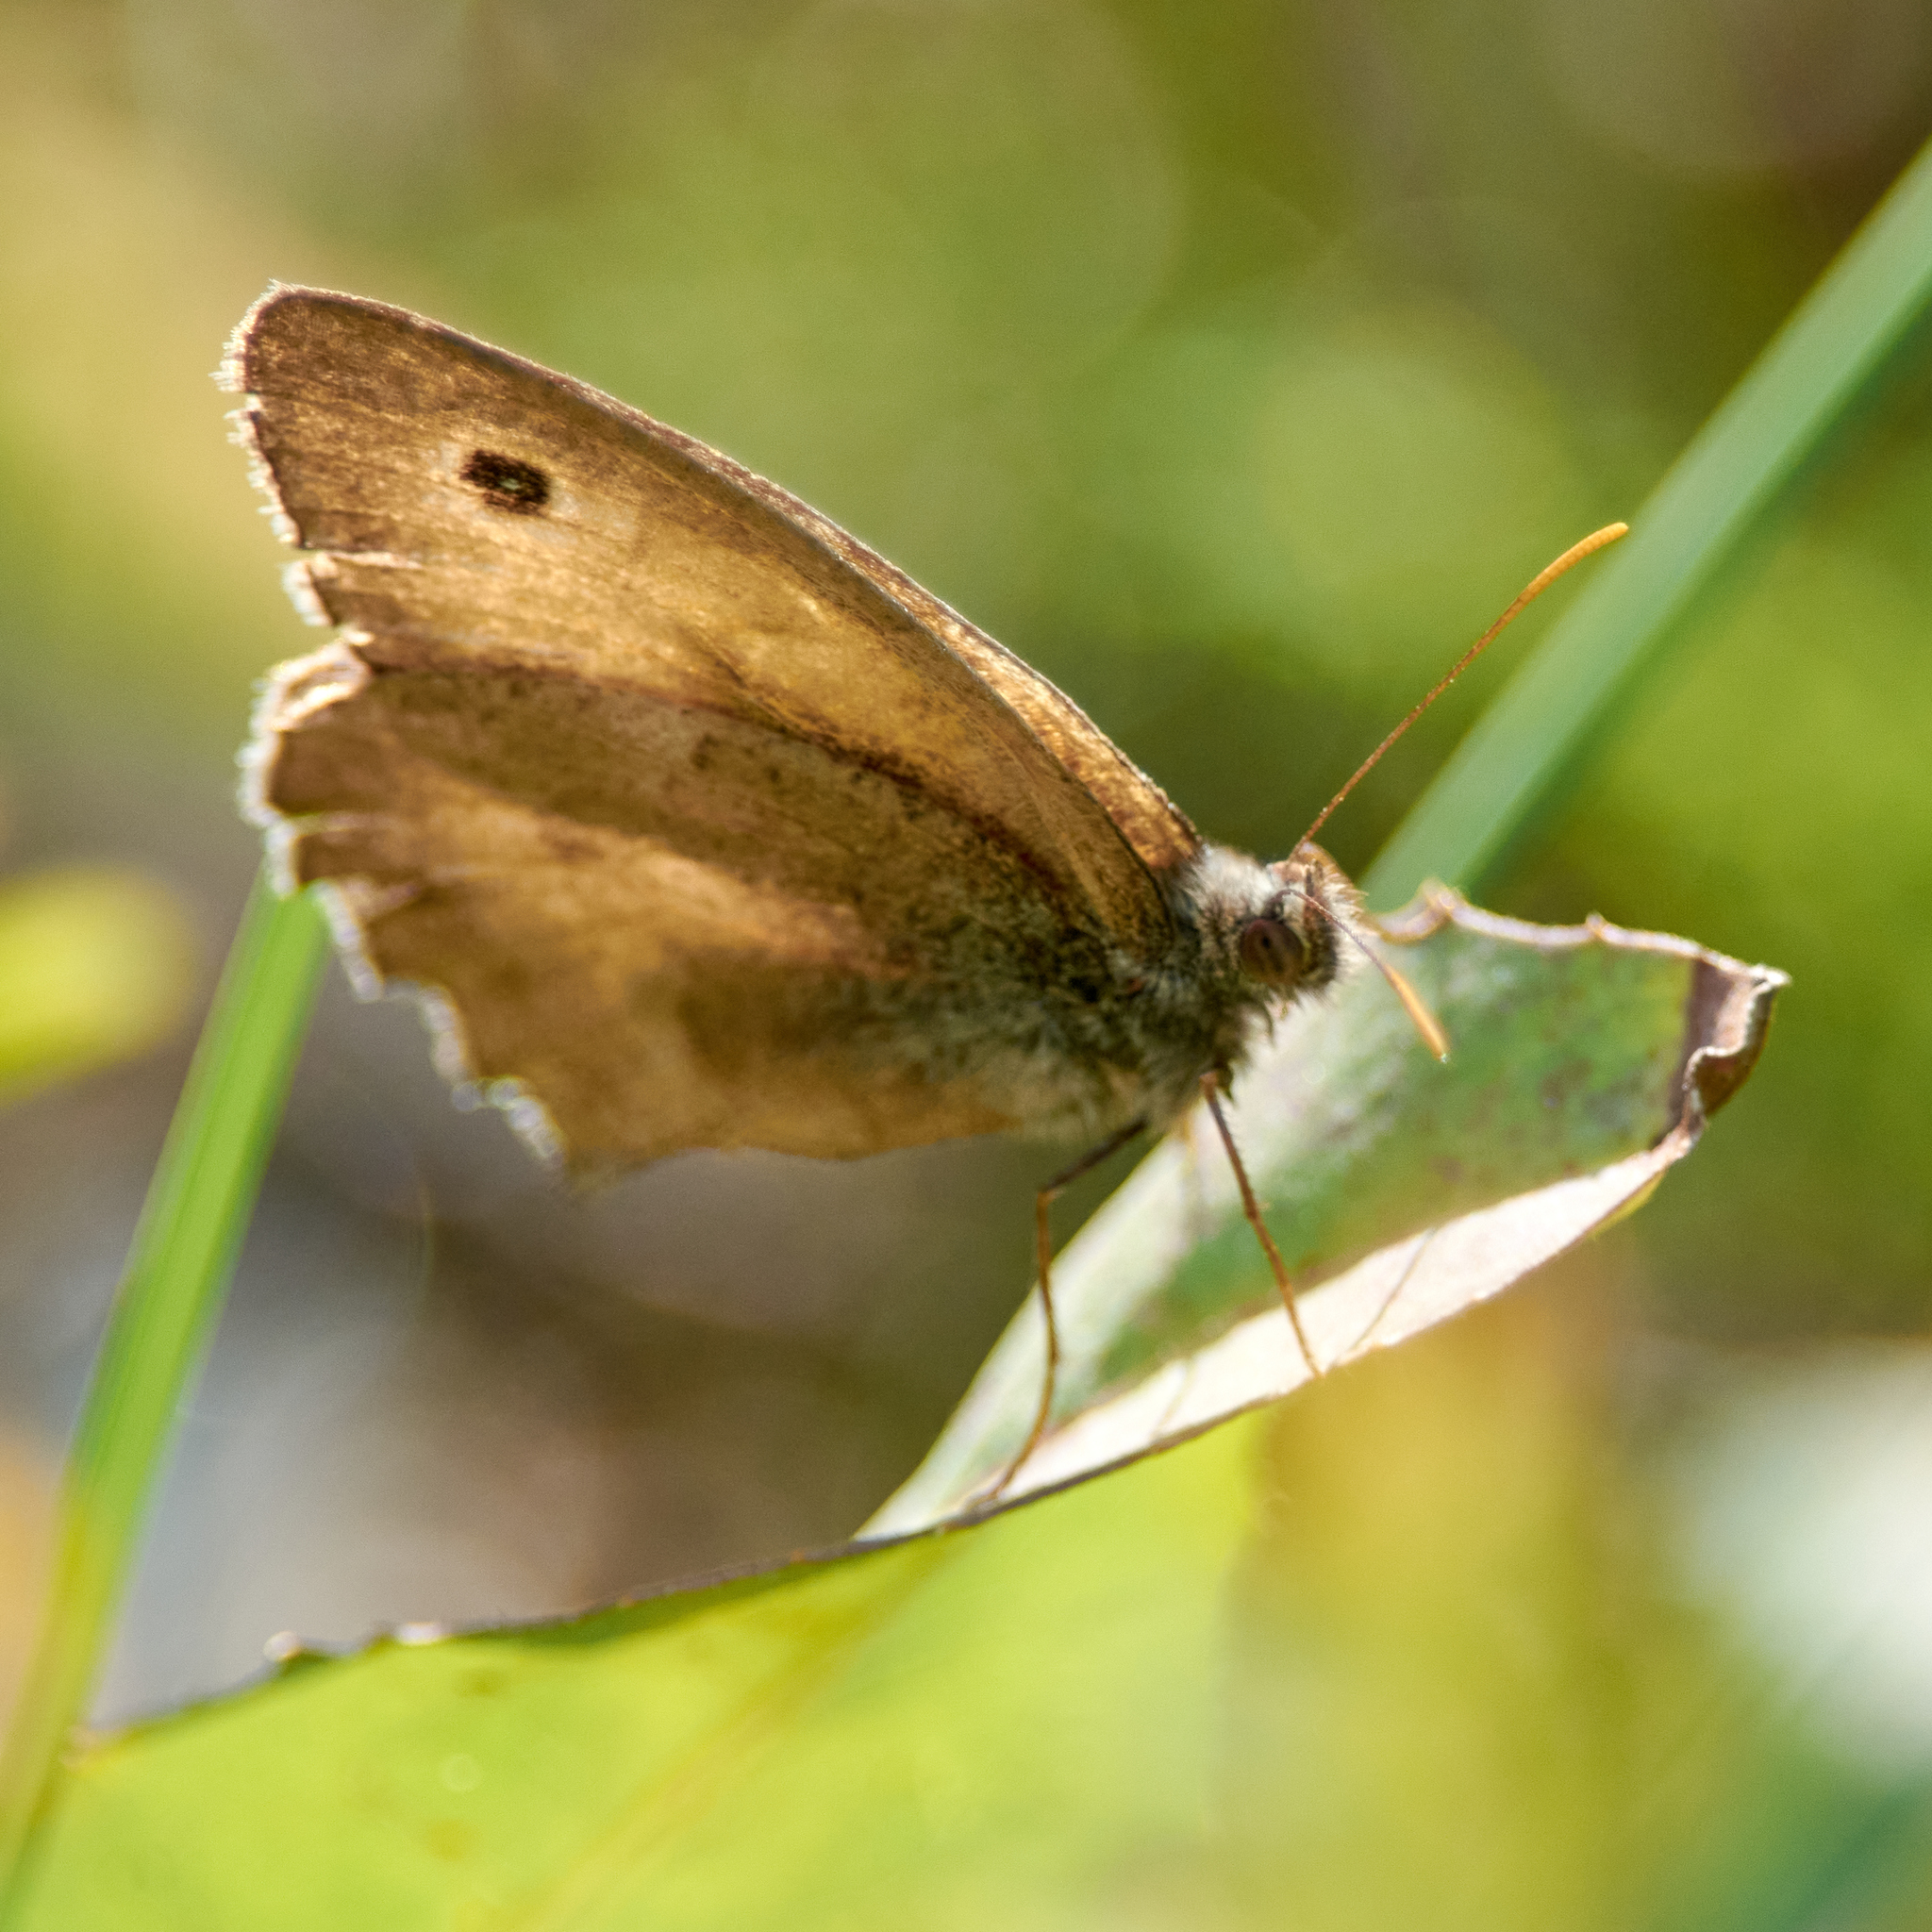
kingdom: Animalia
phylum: Arthropoda
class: Insecta
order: Lepidoptera
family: Nymphalidae
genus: Hyponephele
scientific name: Hyponephele lycaon
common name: Dusky meadow brown
